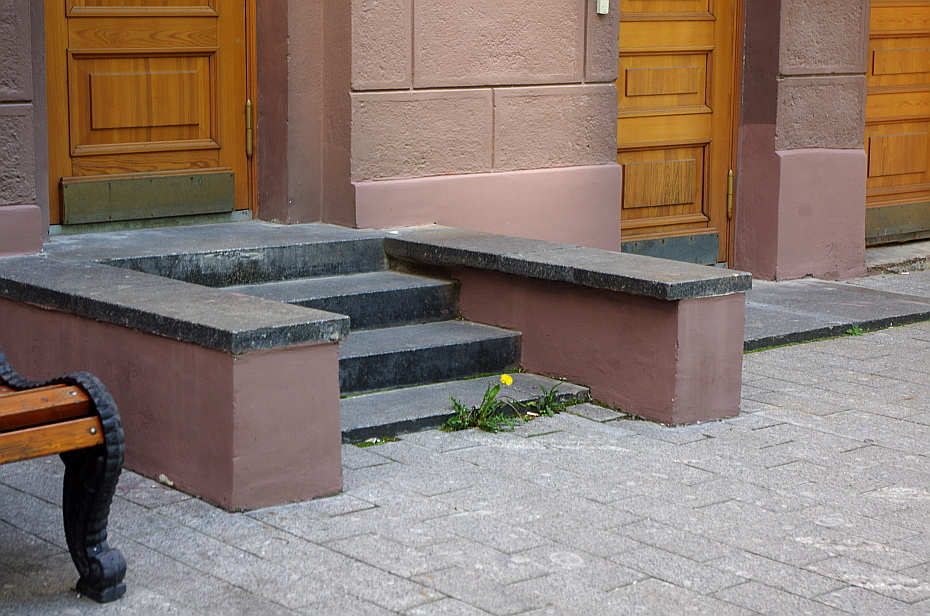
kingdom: Plantae
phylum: Tracheophyta
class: Magnoliopsida
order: Asterales
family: Asteraceae
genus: Taraxacum
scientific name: Taraxacum officinale
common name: Common dandelion
